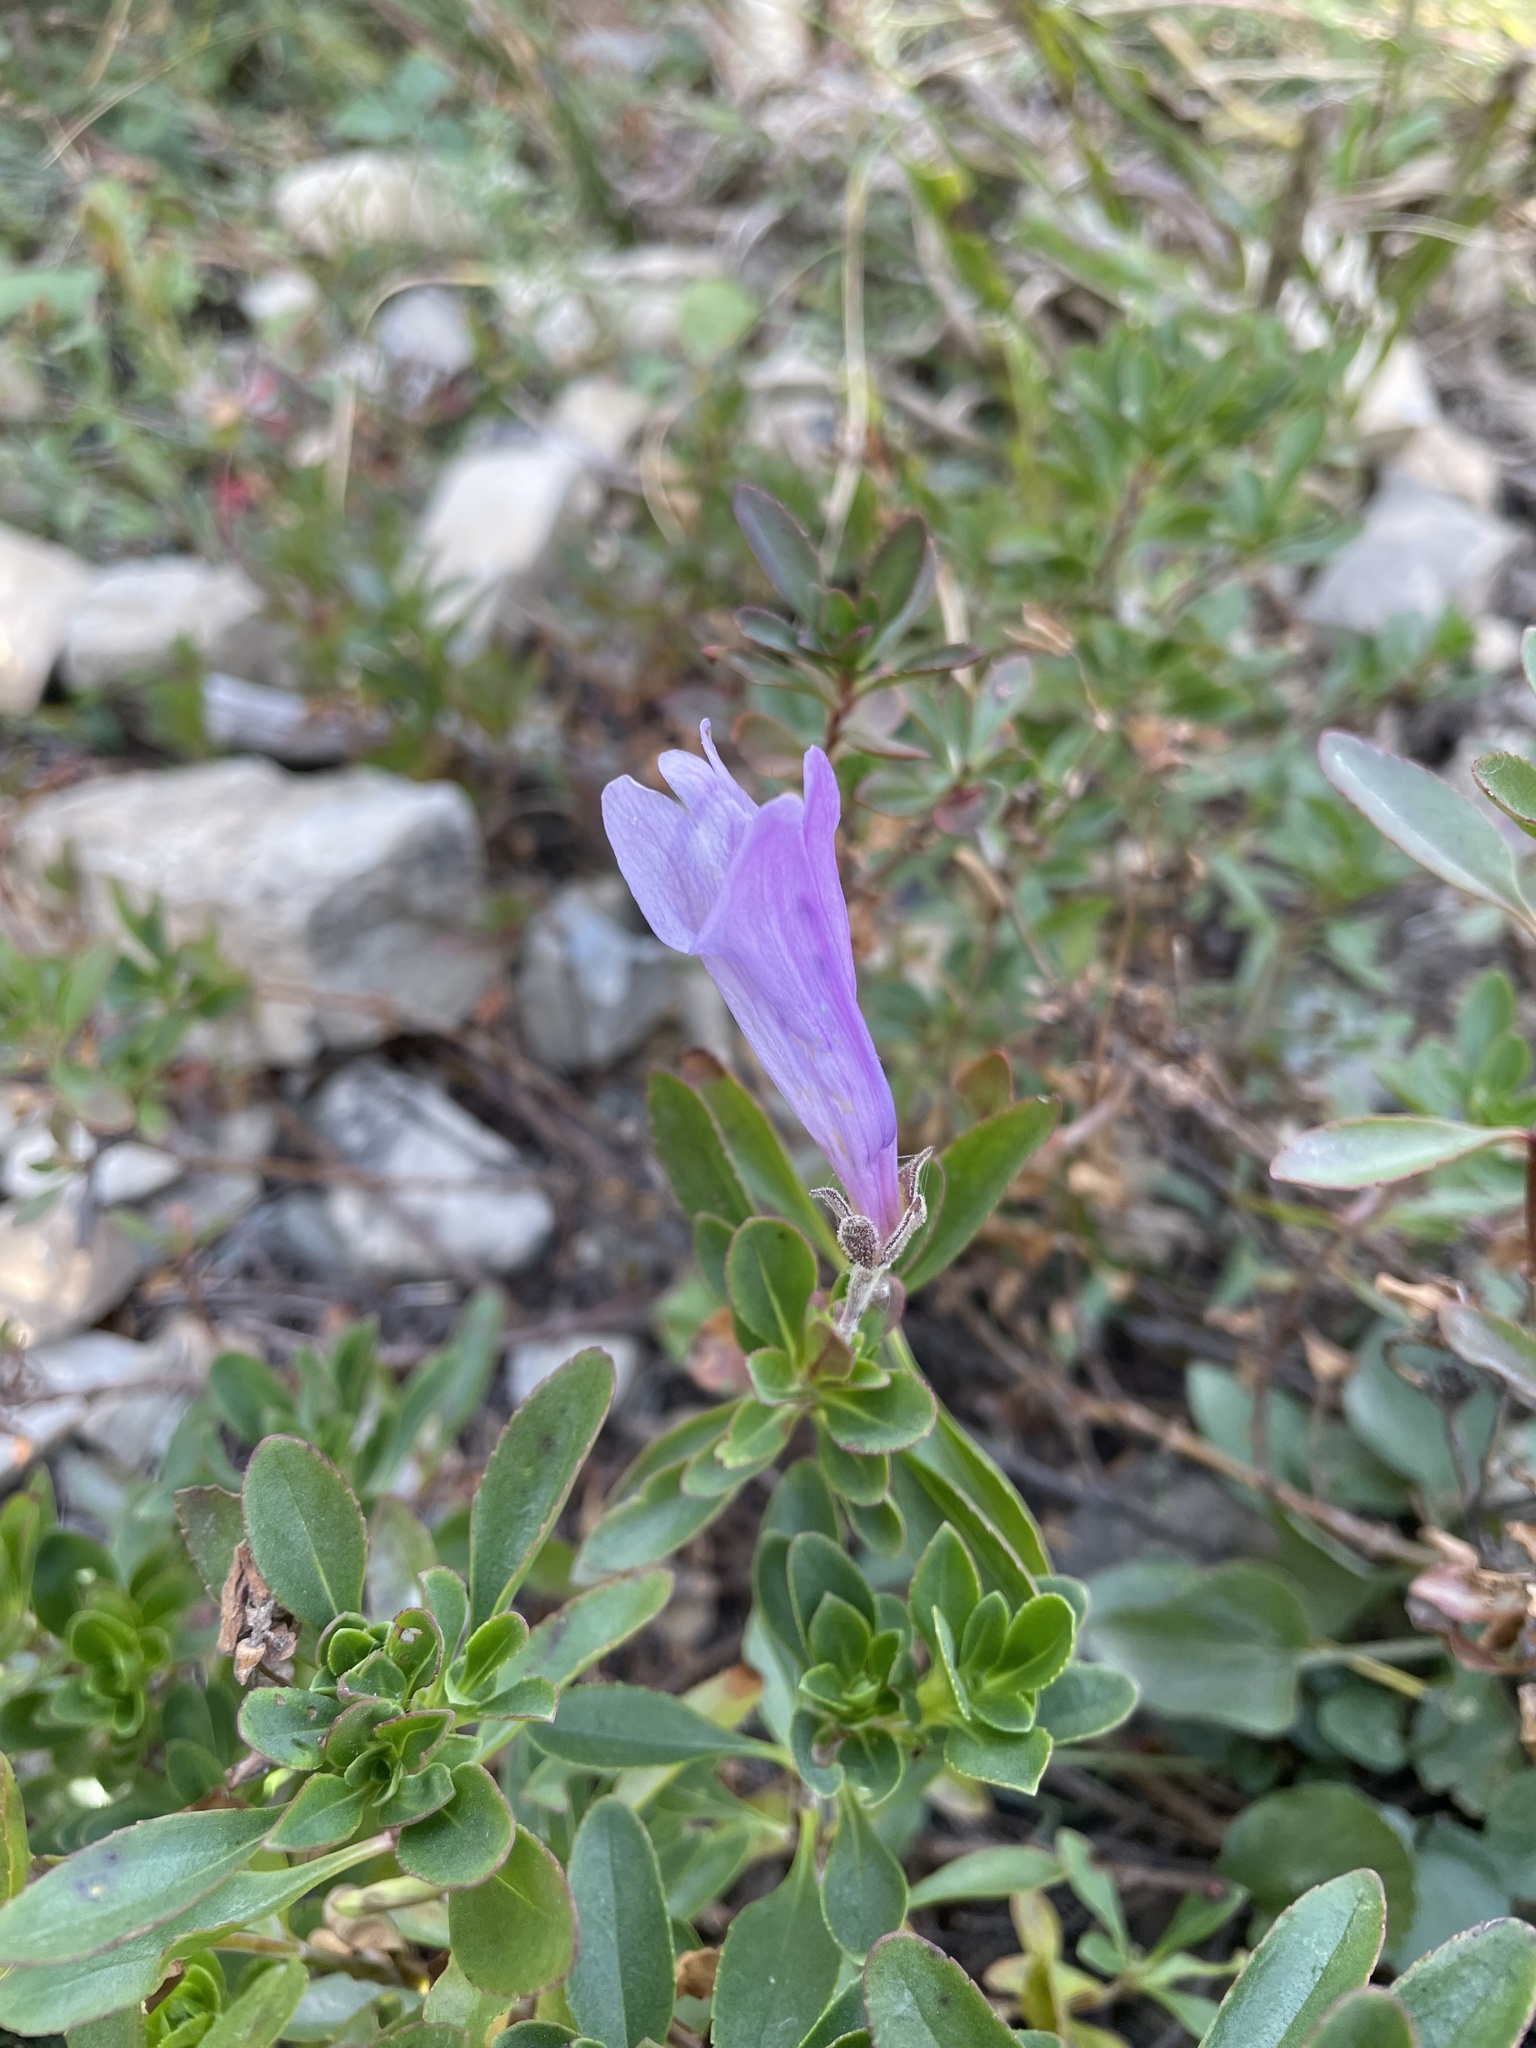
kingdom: Plantae
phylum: Tracheophyta
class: Magnoliopsida
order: Lamiales
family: Plantaginaceae
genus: Penstemon
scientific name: Penstemon ellipticus
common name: Alpine beardtongue
